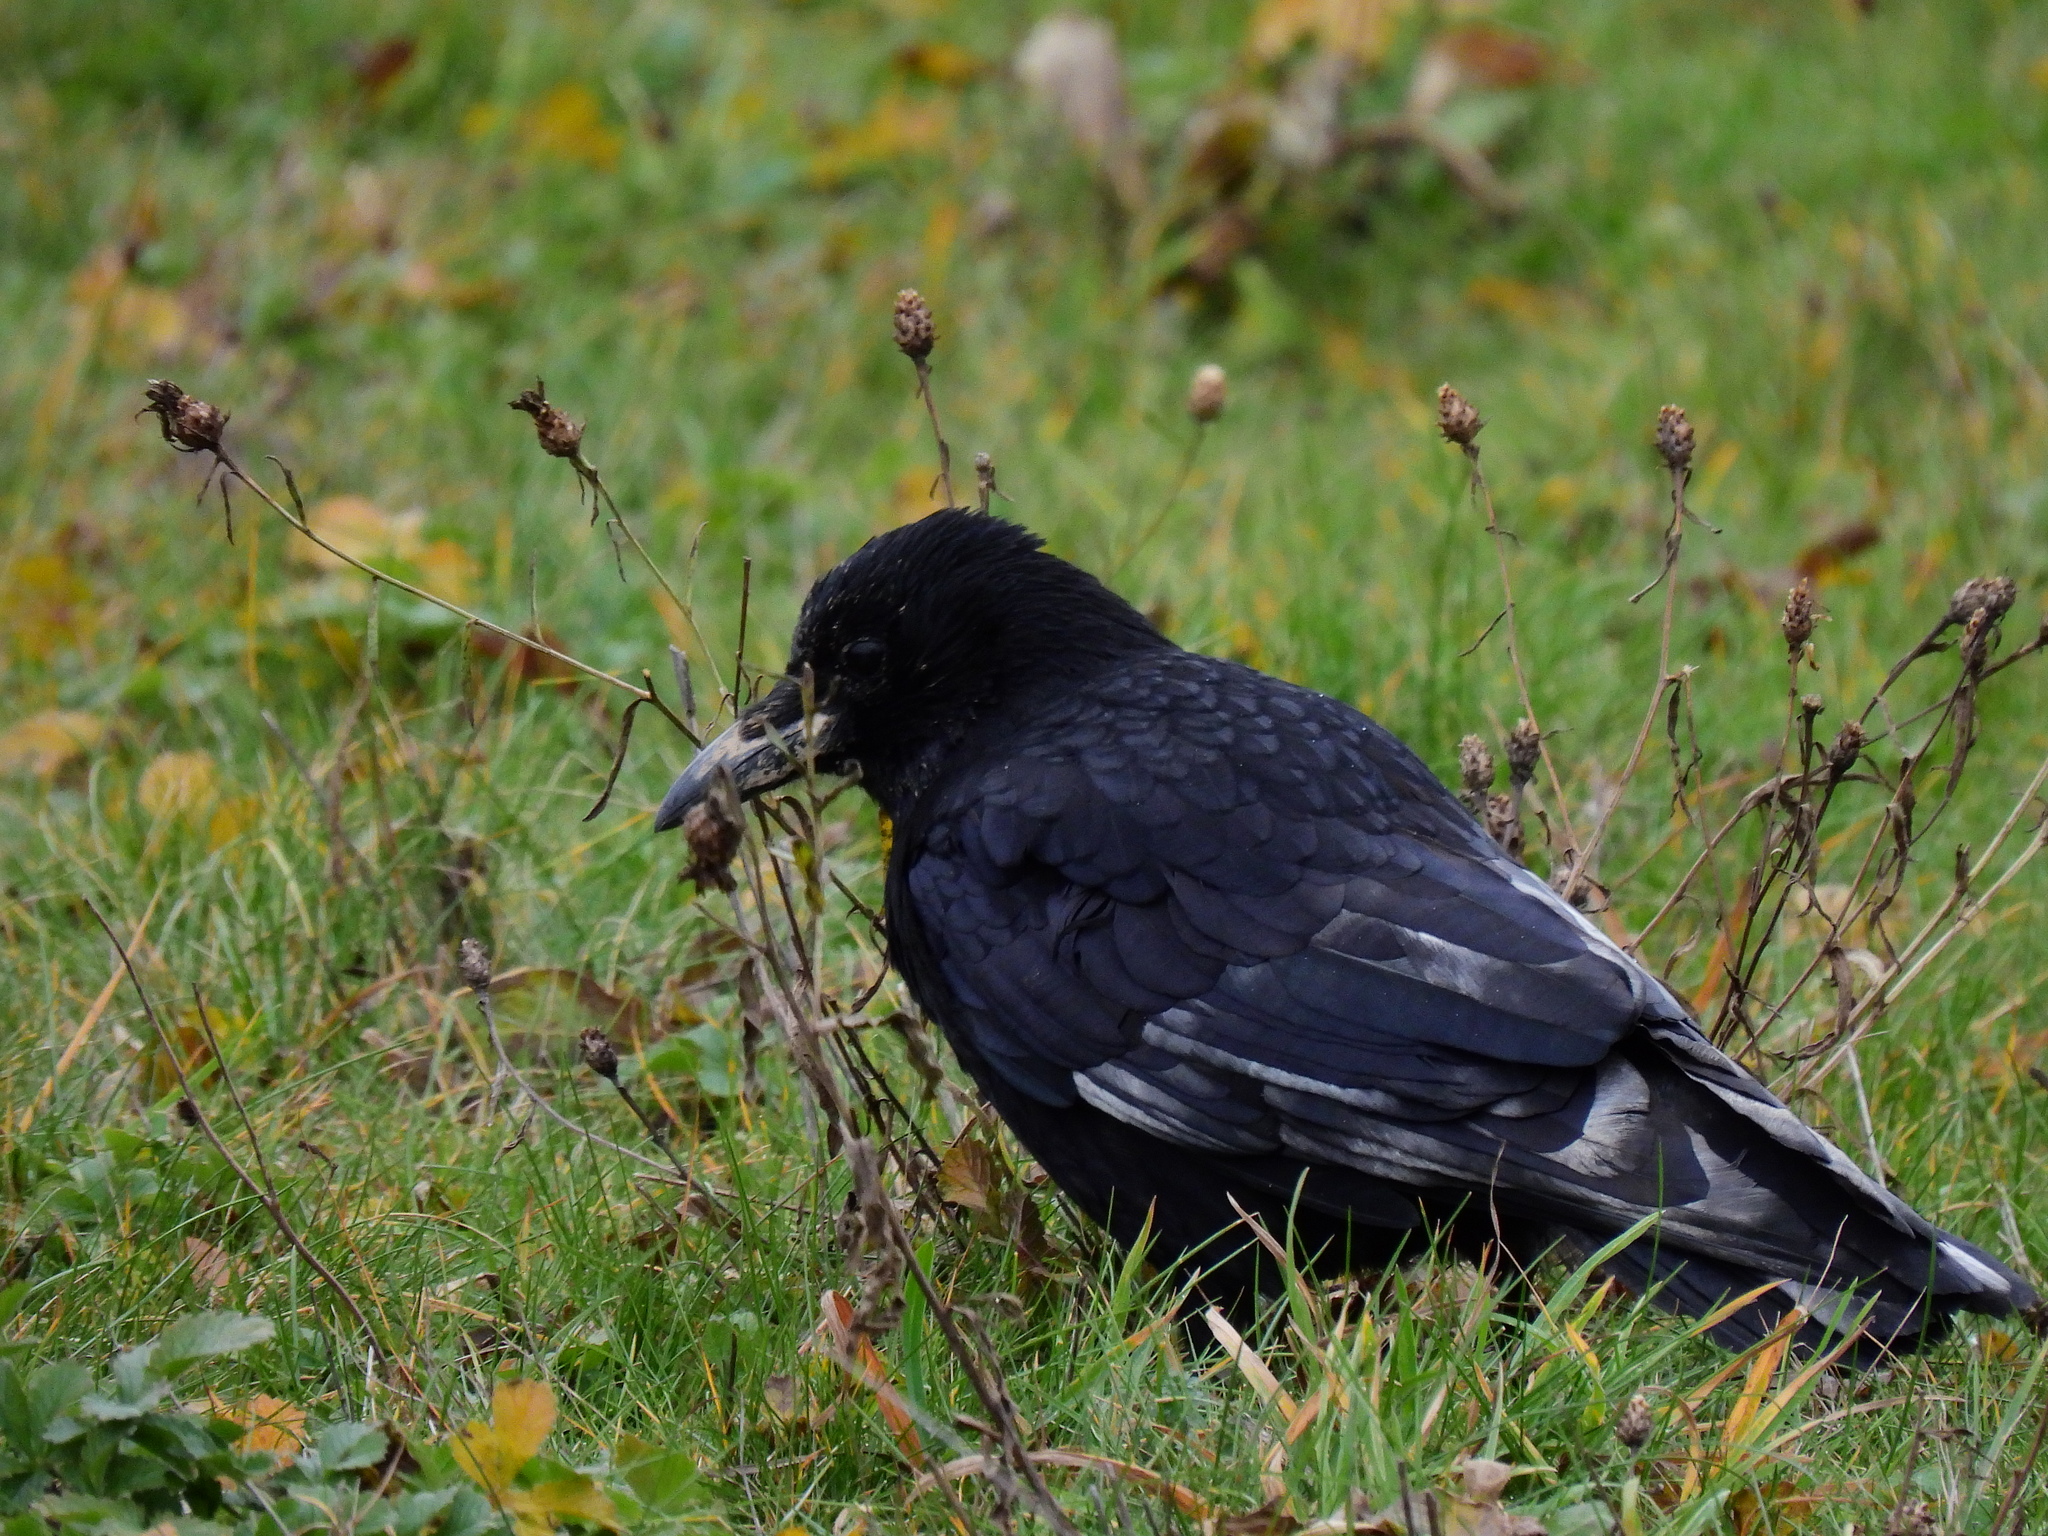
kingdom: Animalia
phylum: Chordata
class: Aves
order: Passeriformes
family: Corvidae
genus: Corvus
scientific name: Corvus corone
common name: Carrion crow
